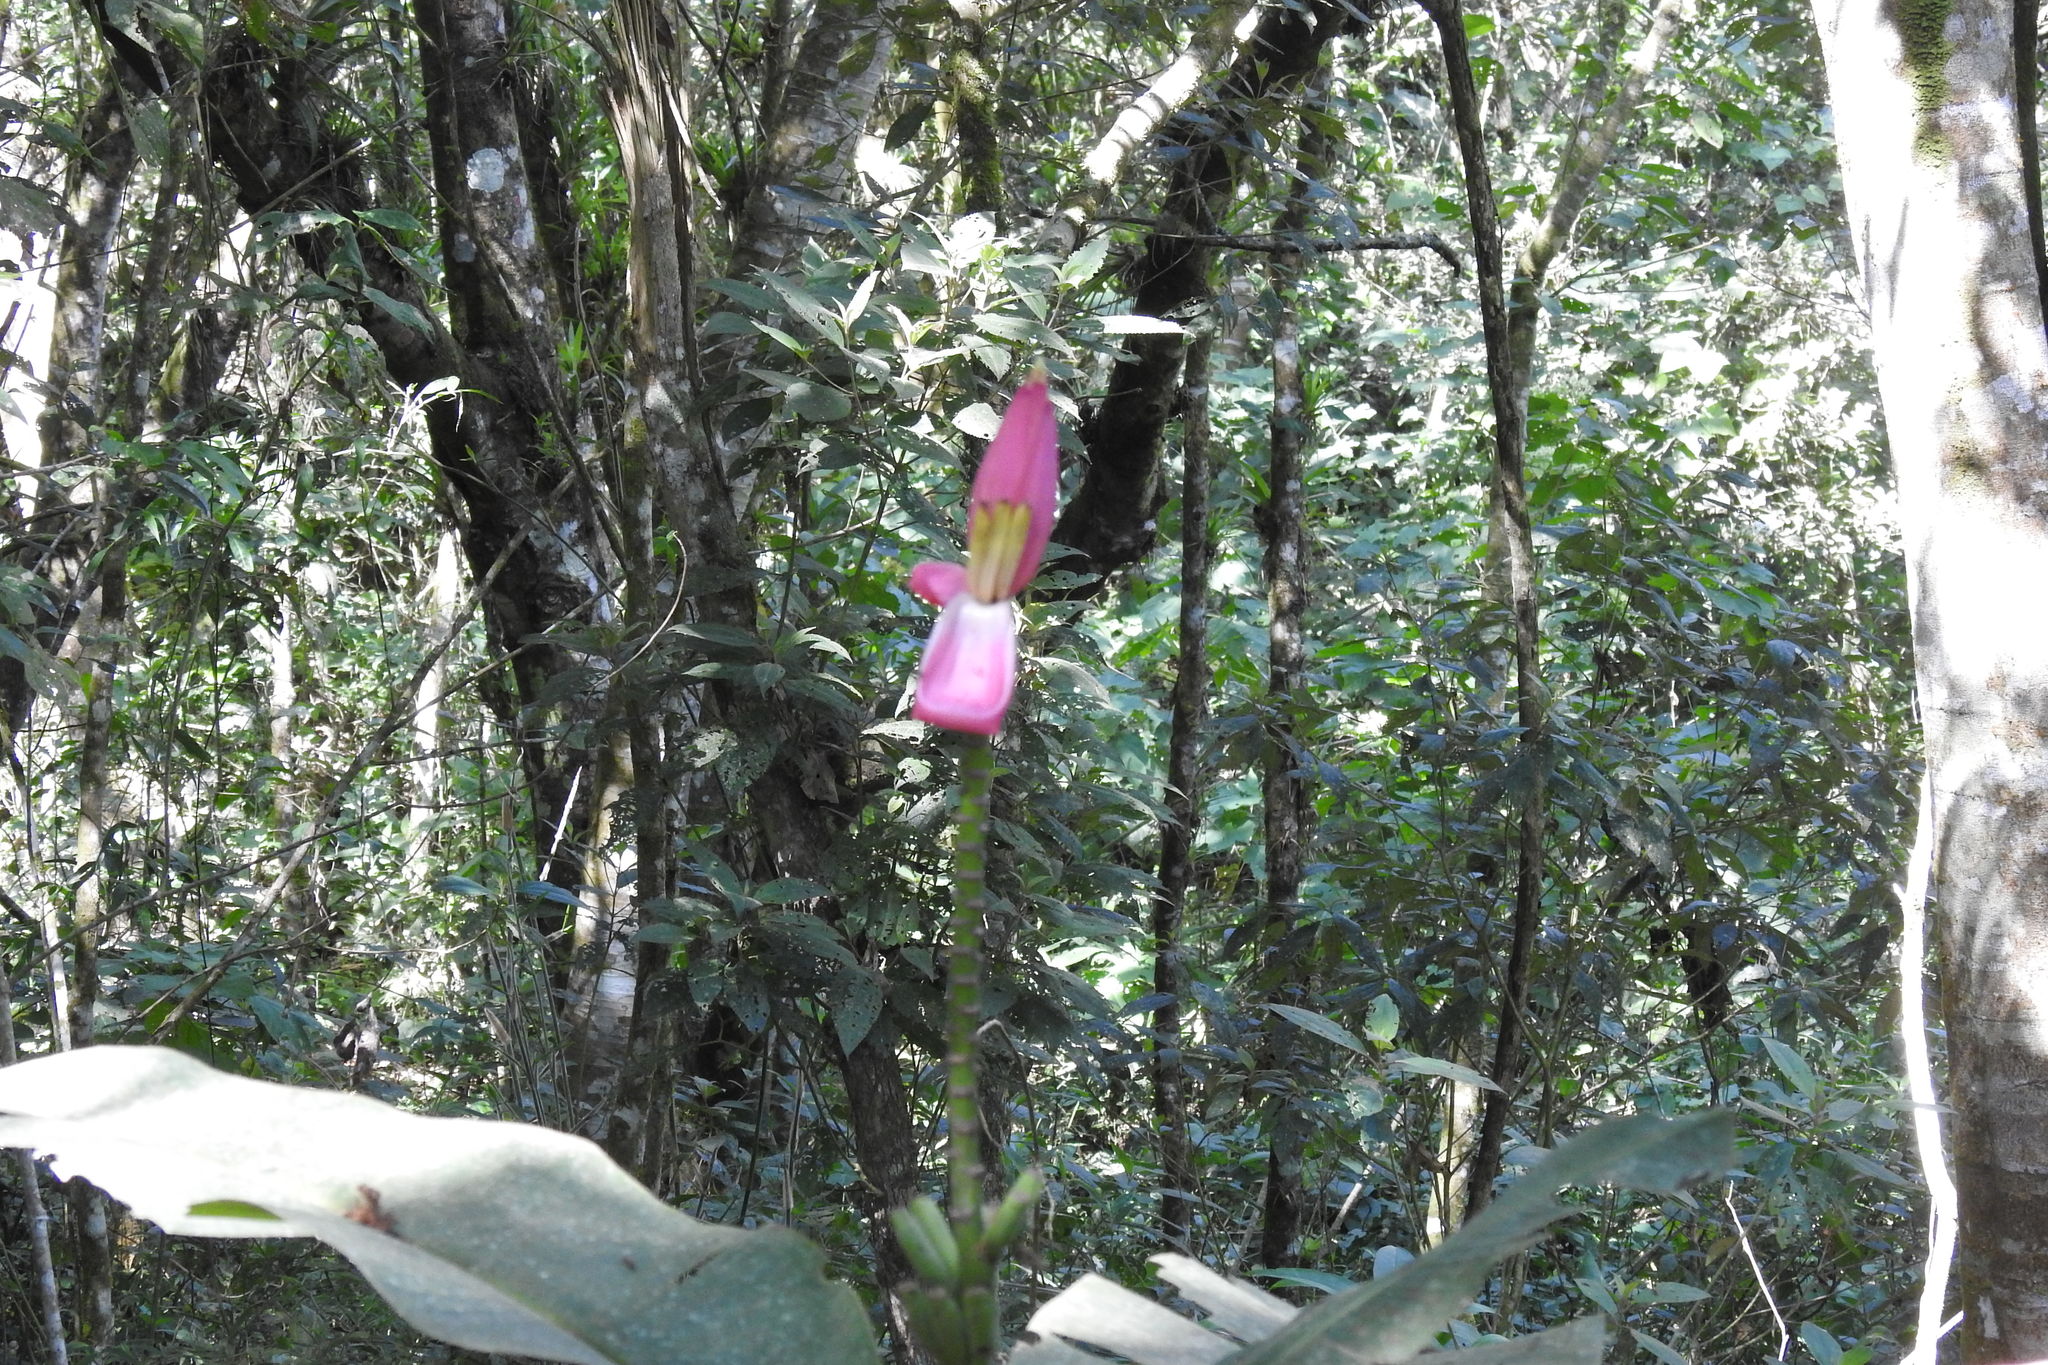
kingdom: Plantae
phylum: Tracheophyta
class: Liliopsida
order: Zingiberales
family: Musaceae
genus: Musa
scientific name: Musa ornata
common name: Flowering banana
